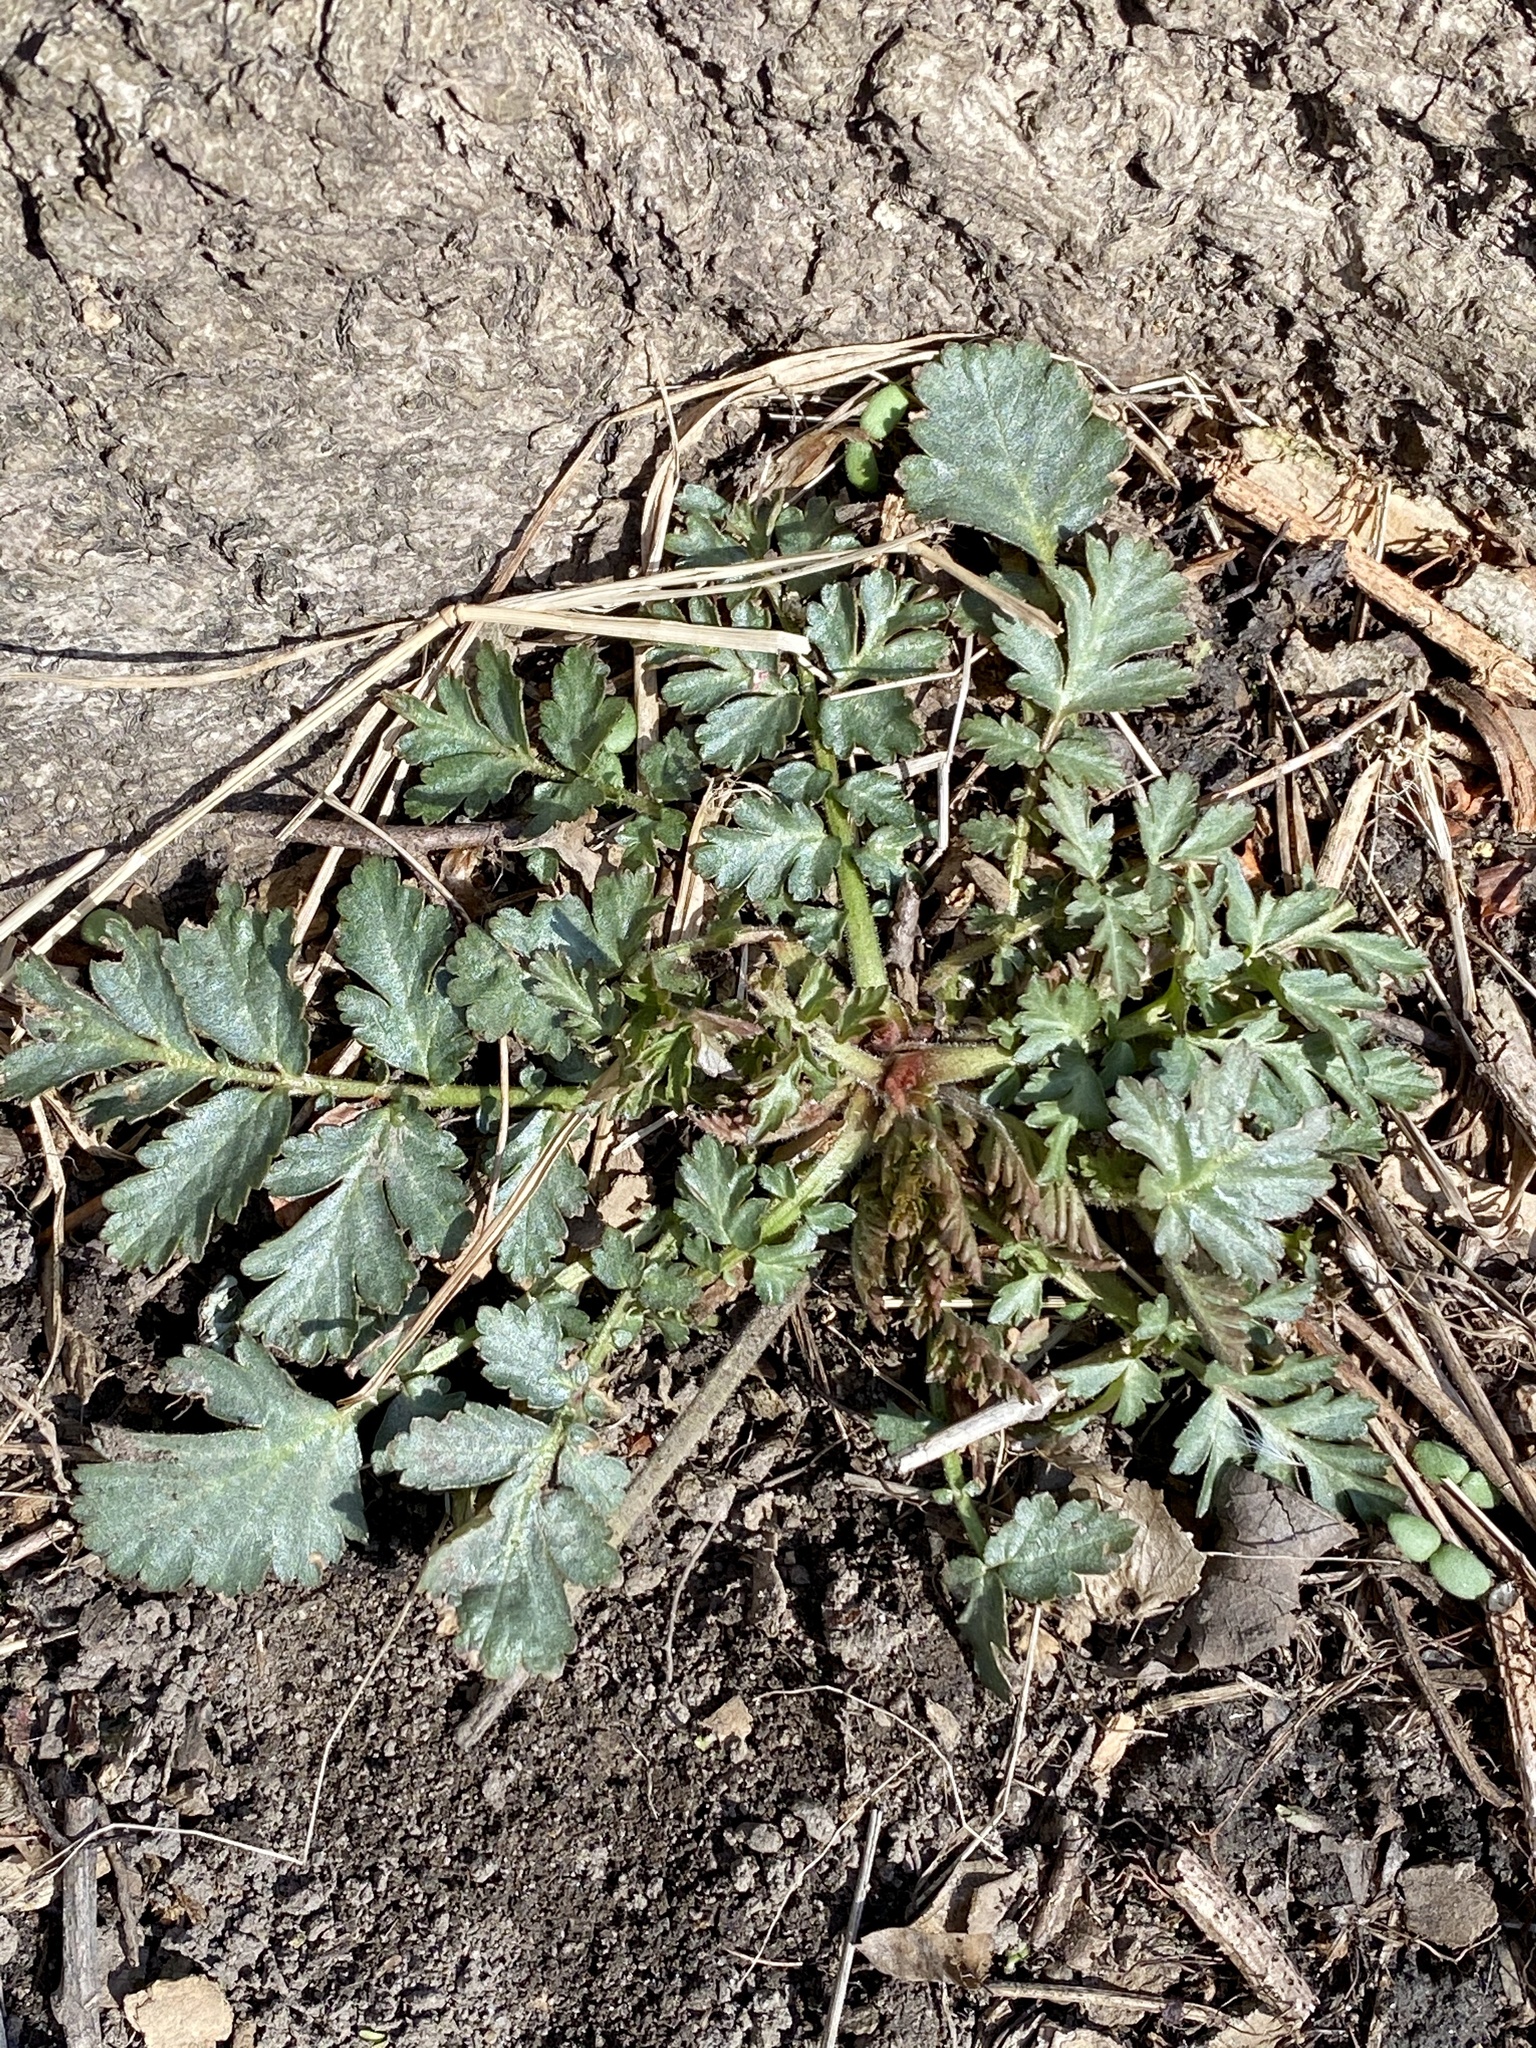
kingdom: Plantae
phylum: Tracheophyta
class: Magnoliopsida
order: Rosales
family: Rosaceae
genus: Geum
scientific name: Geum canadense
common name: White avens
